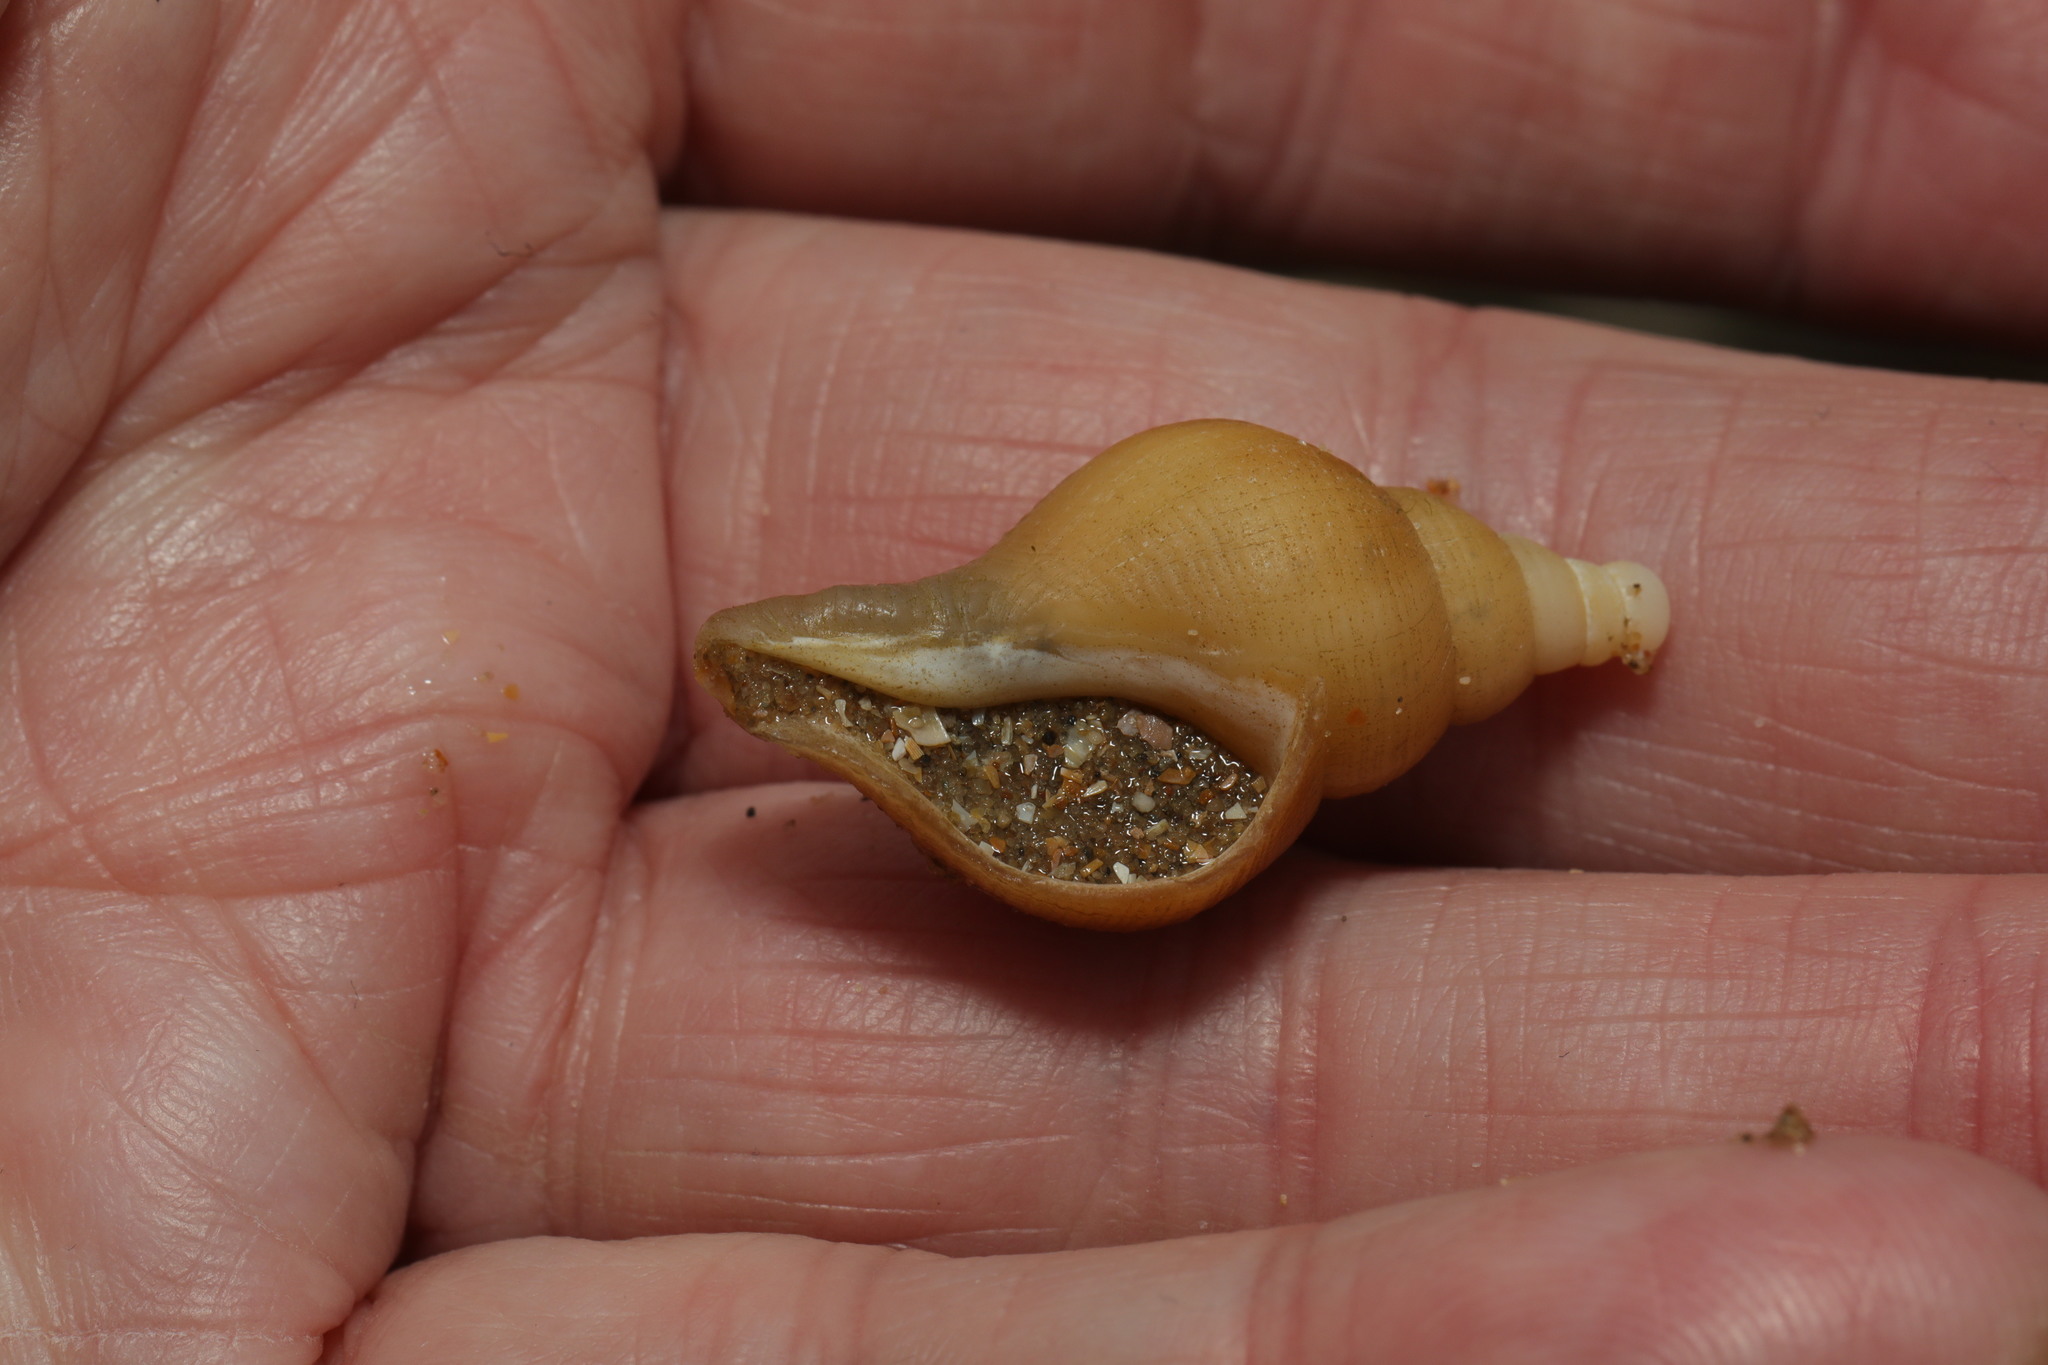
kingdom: Animalia
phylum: Mollusca
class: Gastropoda
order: Neogastropoda
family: Buccinidae
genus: Neptunea
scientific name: Neptunea antiqua
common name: Buckie
